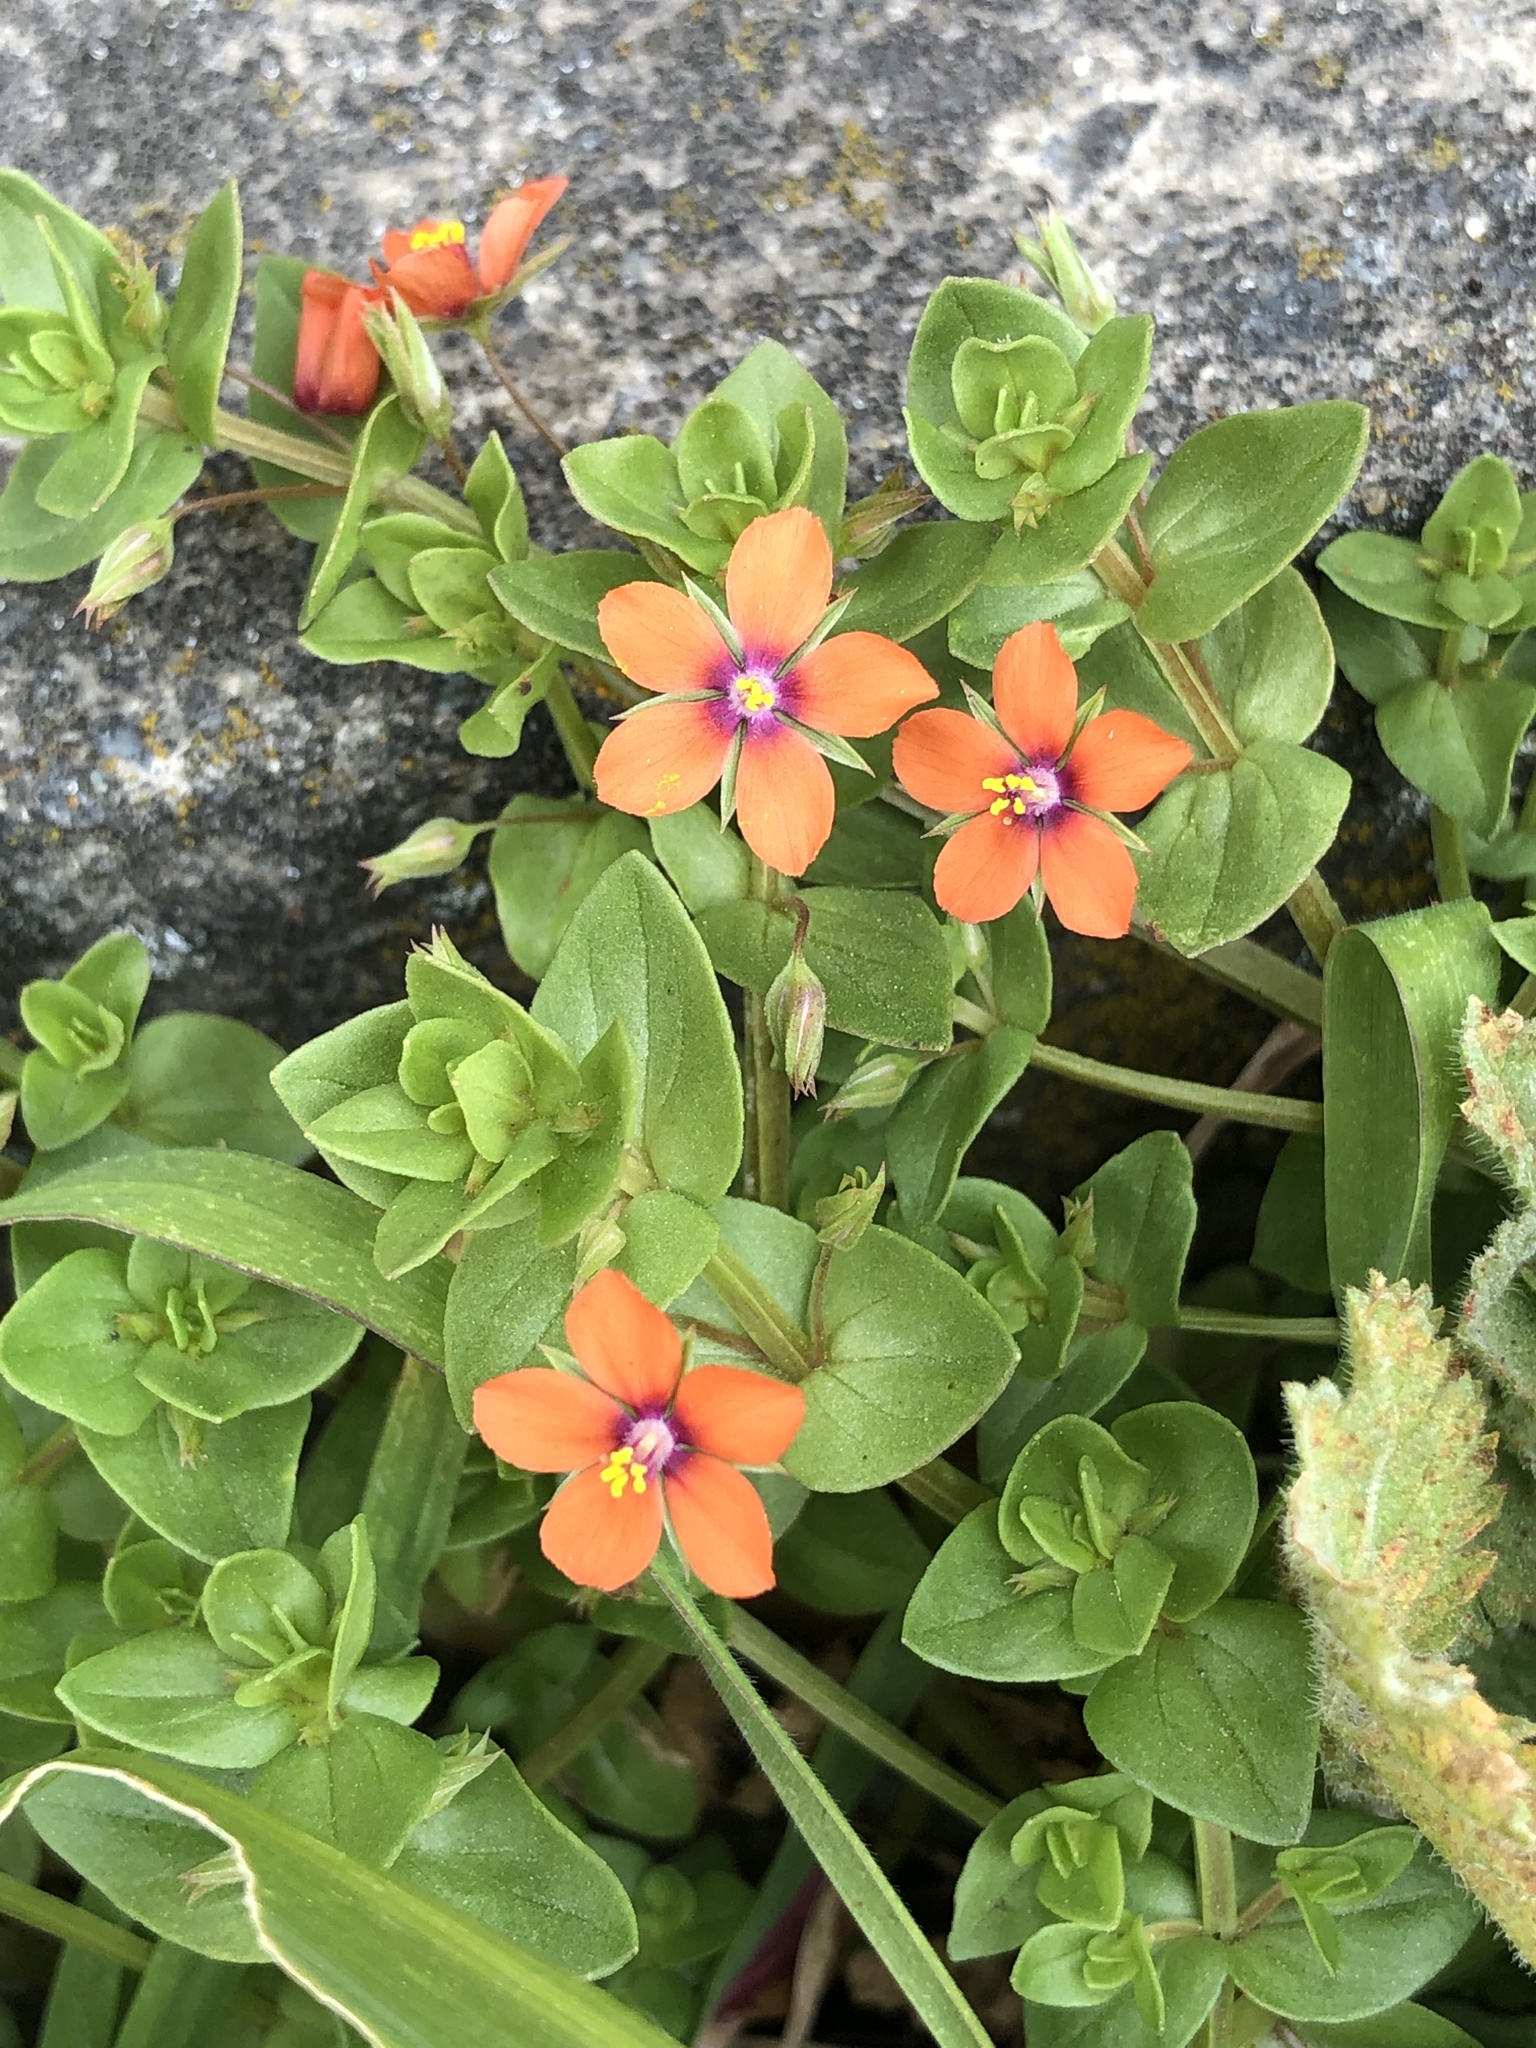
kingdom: Plantae
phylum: Tracheophyta
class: Magnoliopsida
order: Ericales
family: Primulaceae
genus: Lysimachia
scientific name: Lysimachia arvensis
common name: Scarlet pimpernel
